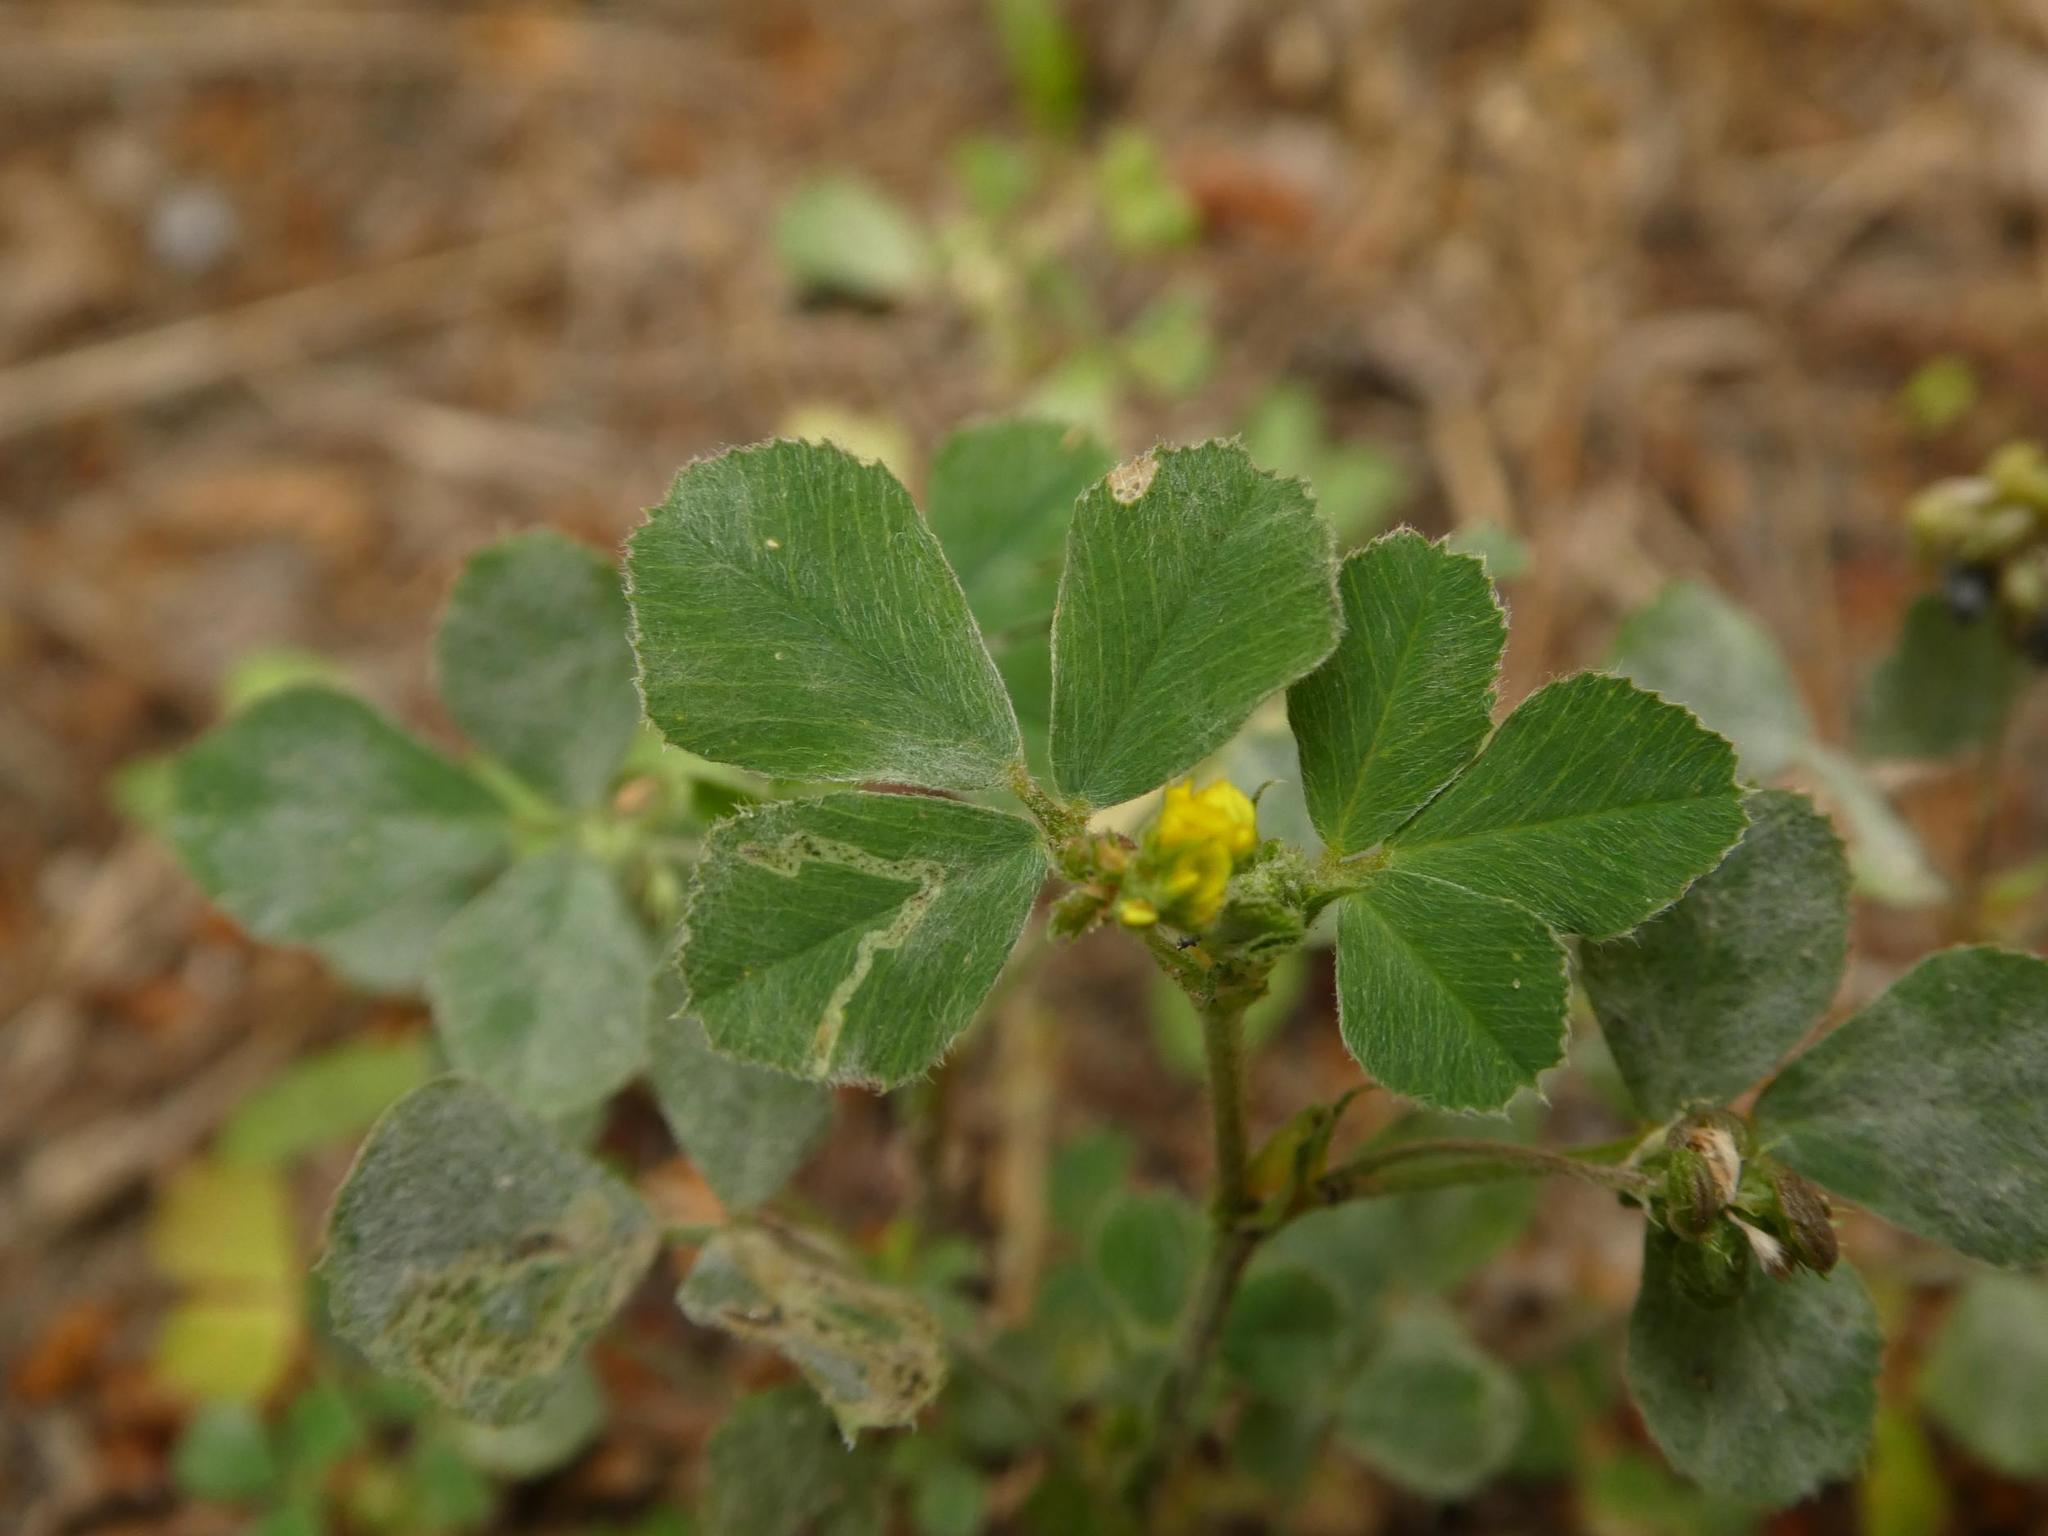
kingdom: Plantae
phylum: Tracheophyta
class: Magnoliopsida
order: Fabales
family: Fabaceae
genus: Medicago
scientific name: Medicago lupulina
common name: Black medick
